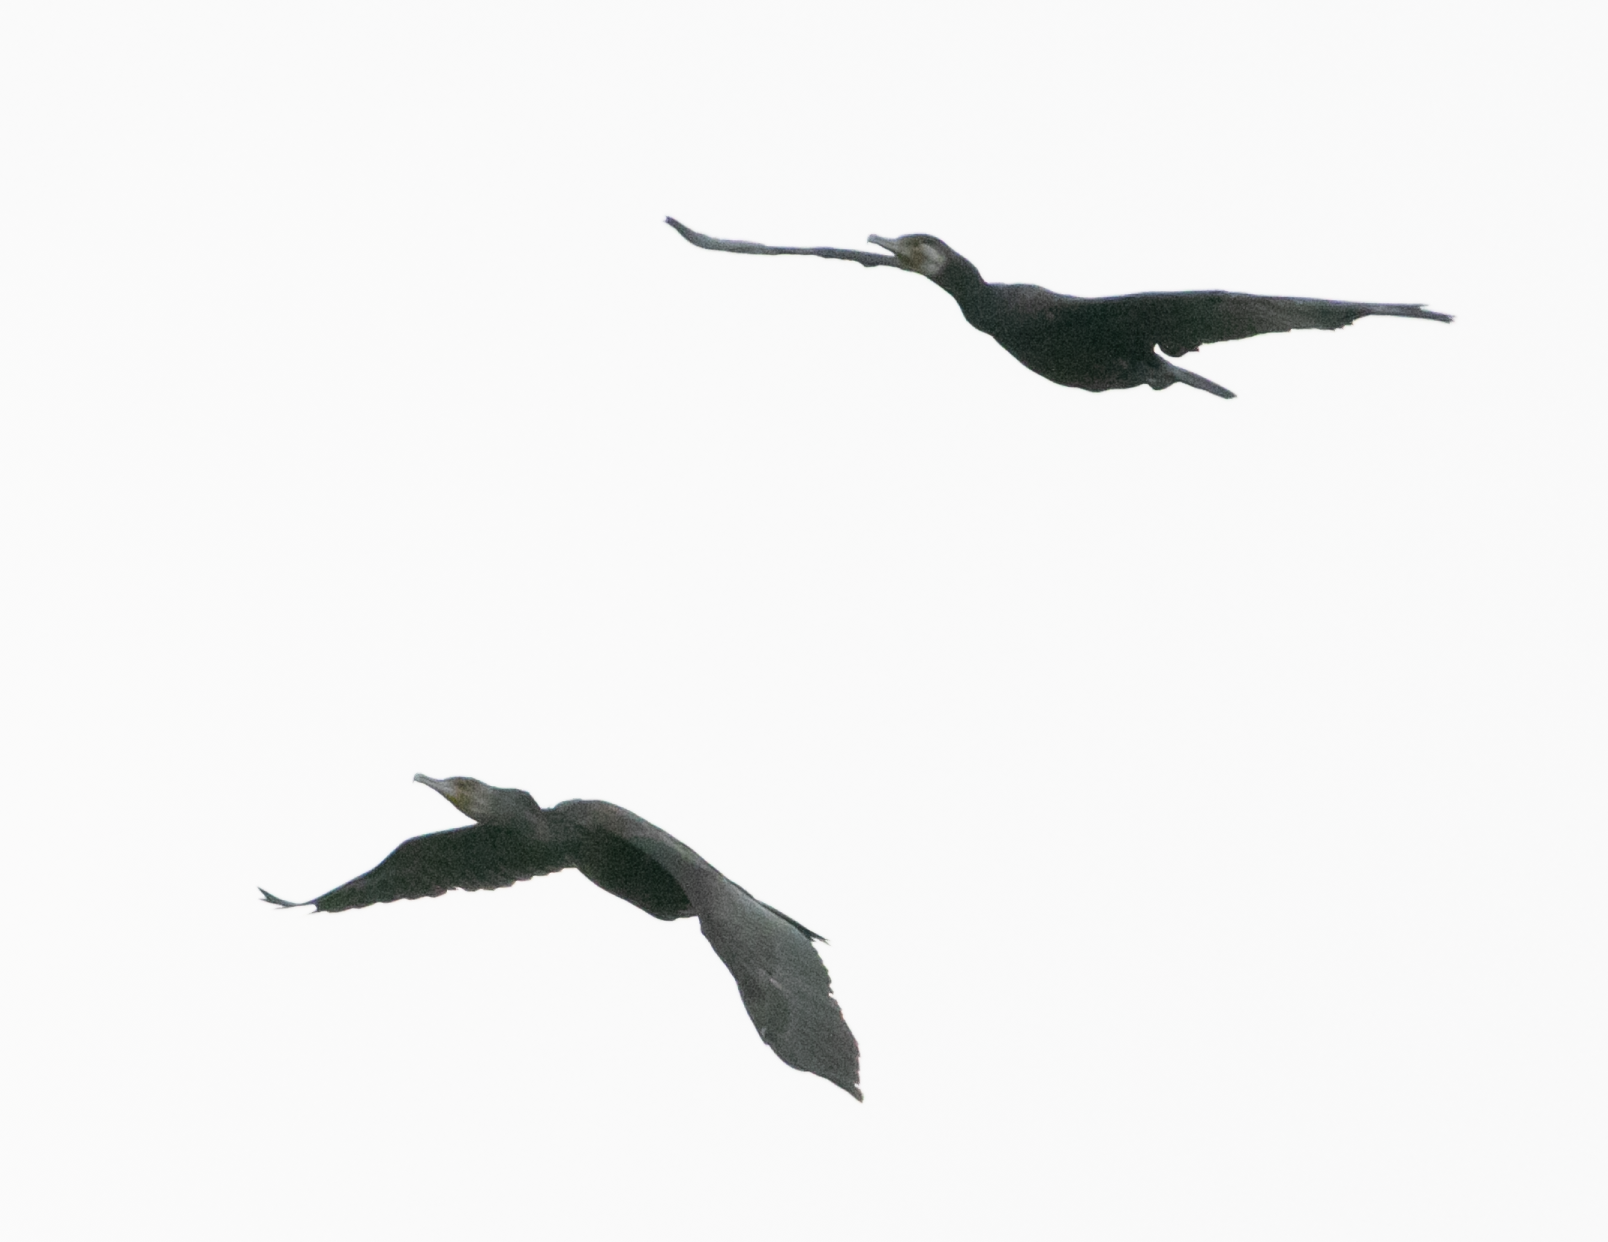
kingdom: Animalia
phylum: Chordata
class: Aves
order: Suliformes
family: Phalacrocoracidae
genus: Phalacrocorax
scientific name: Phalacrocorax carbo
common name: Great cormorant
